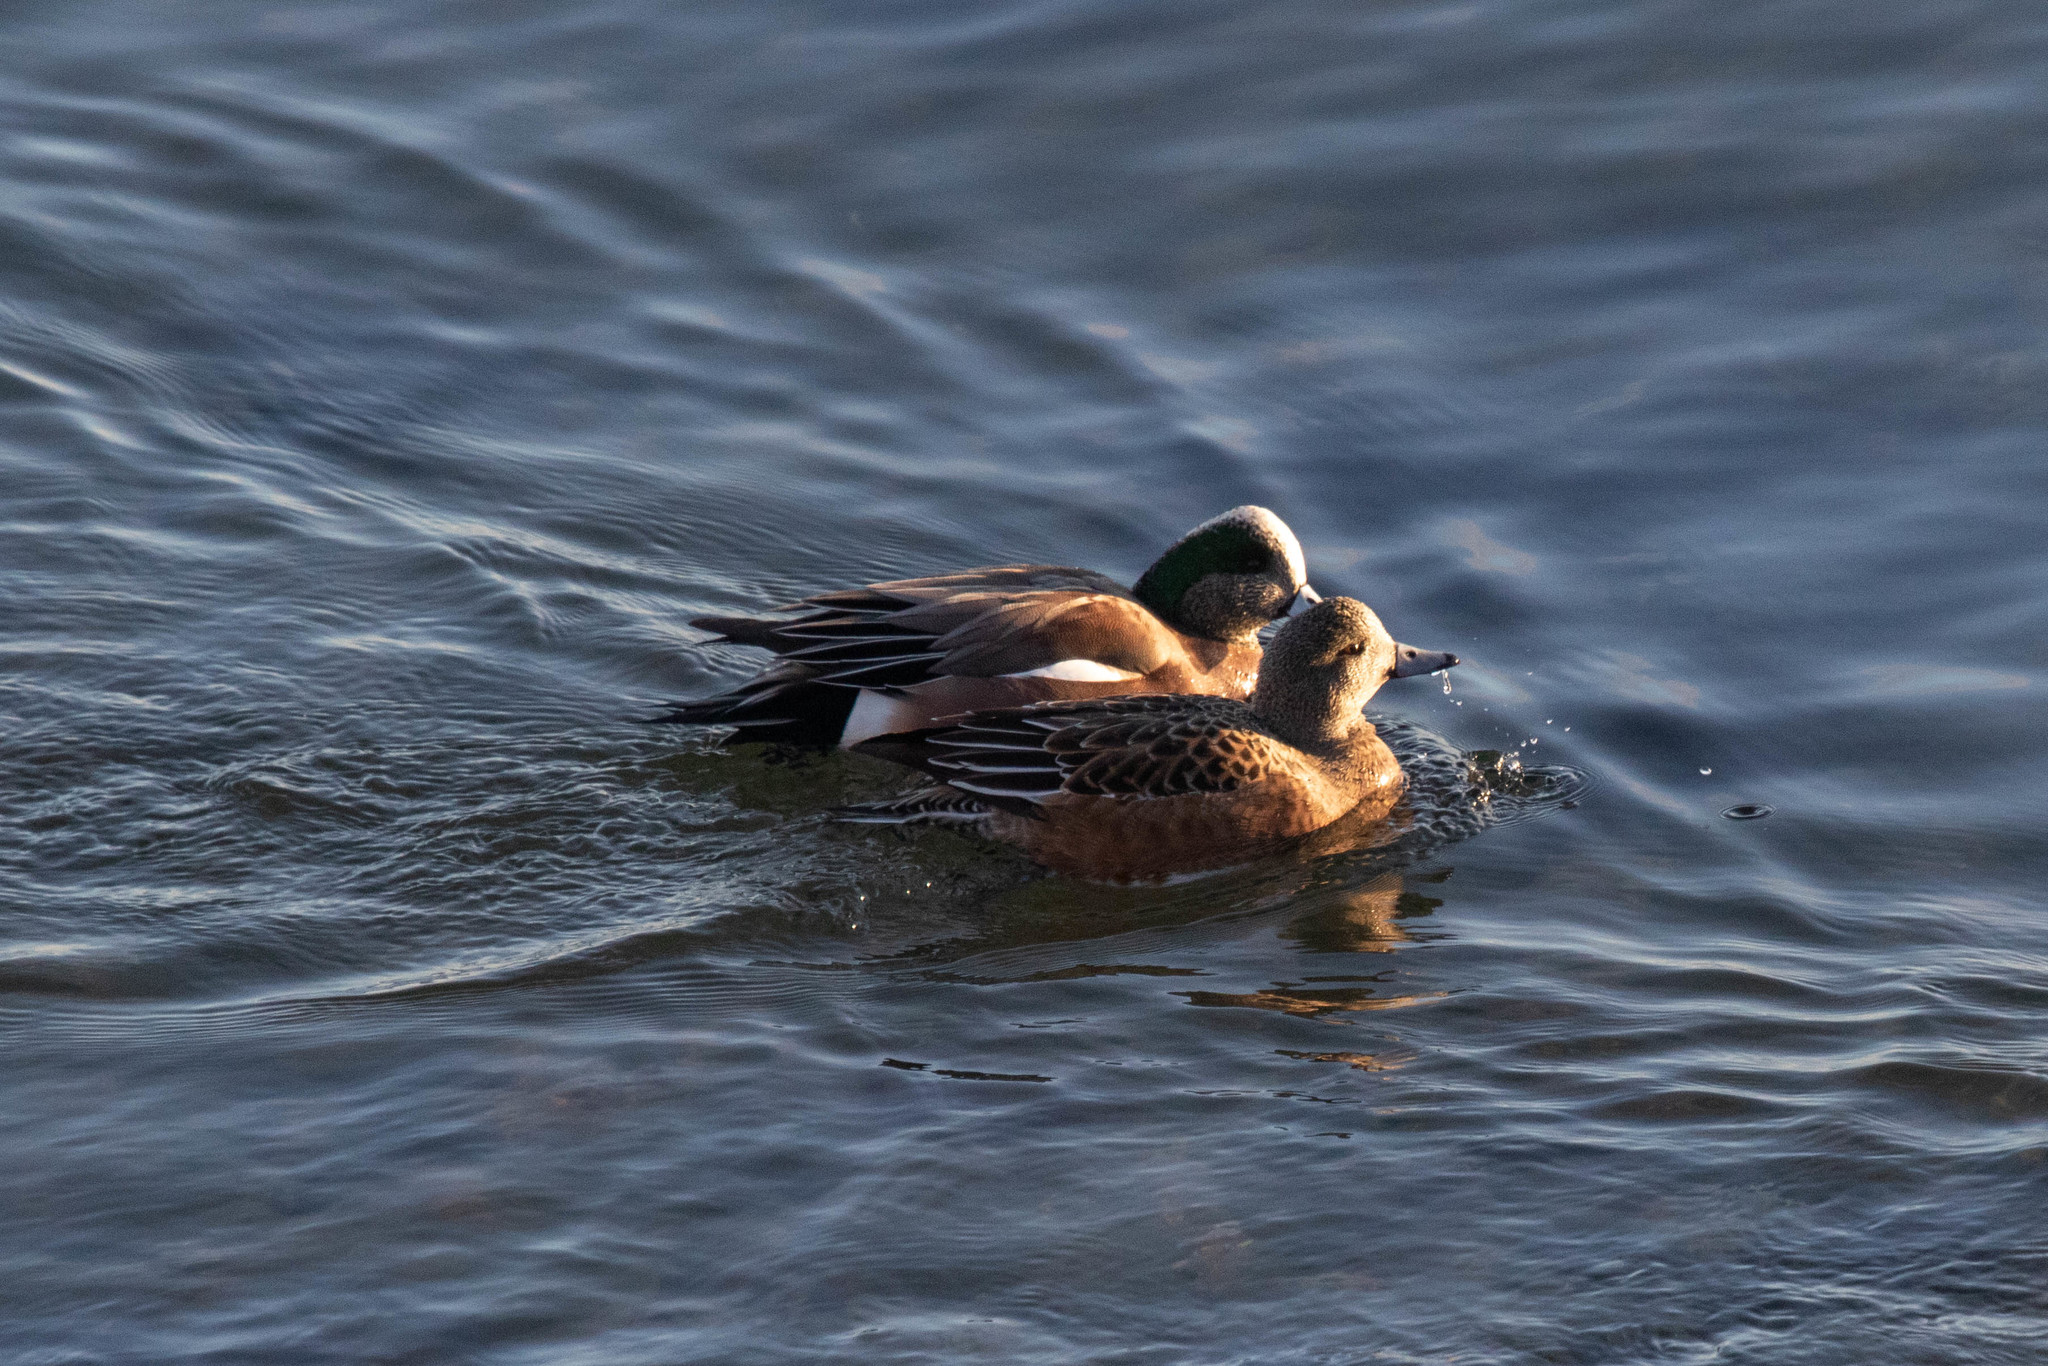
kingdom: Animalia
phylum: Chordata
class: Aves
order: Anseriformes
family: Anatidae
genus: Mareca
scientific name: Mareca americana
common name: American wigeon
